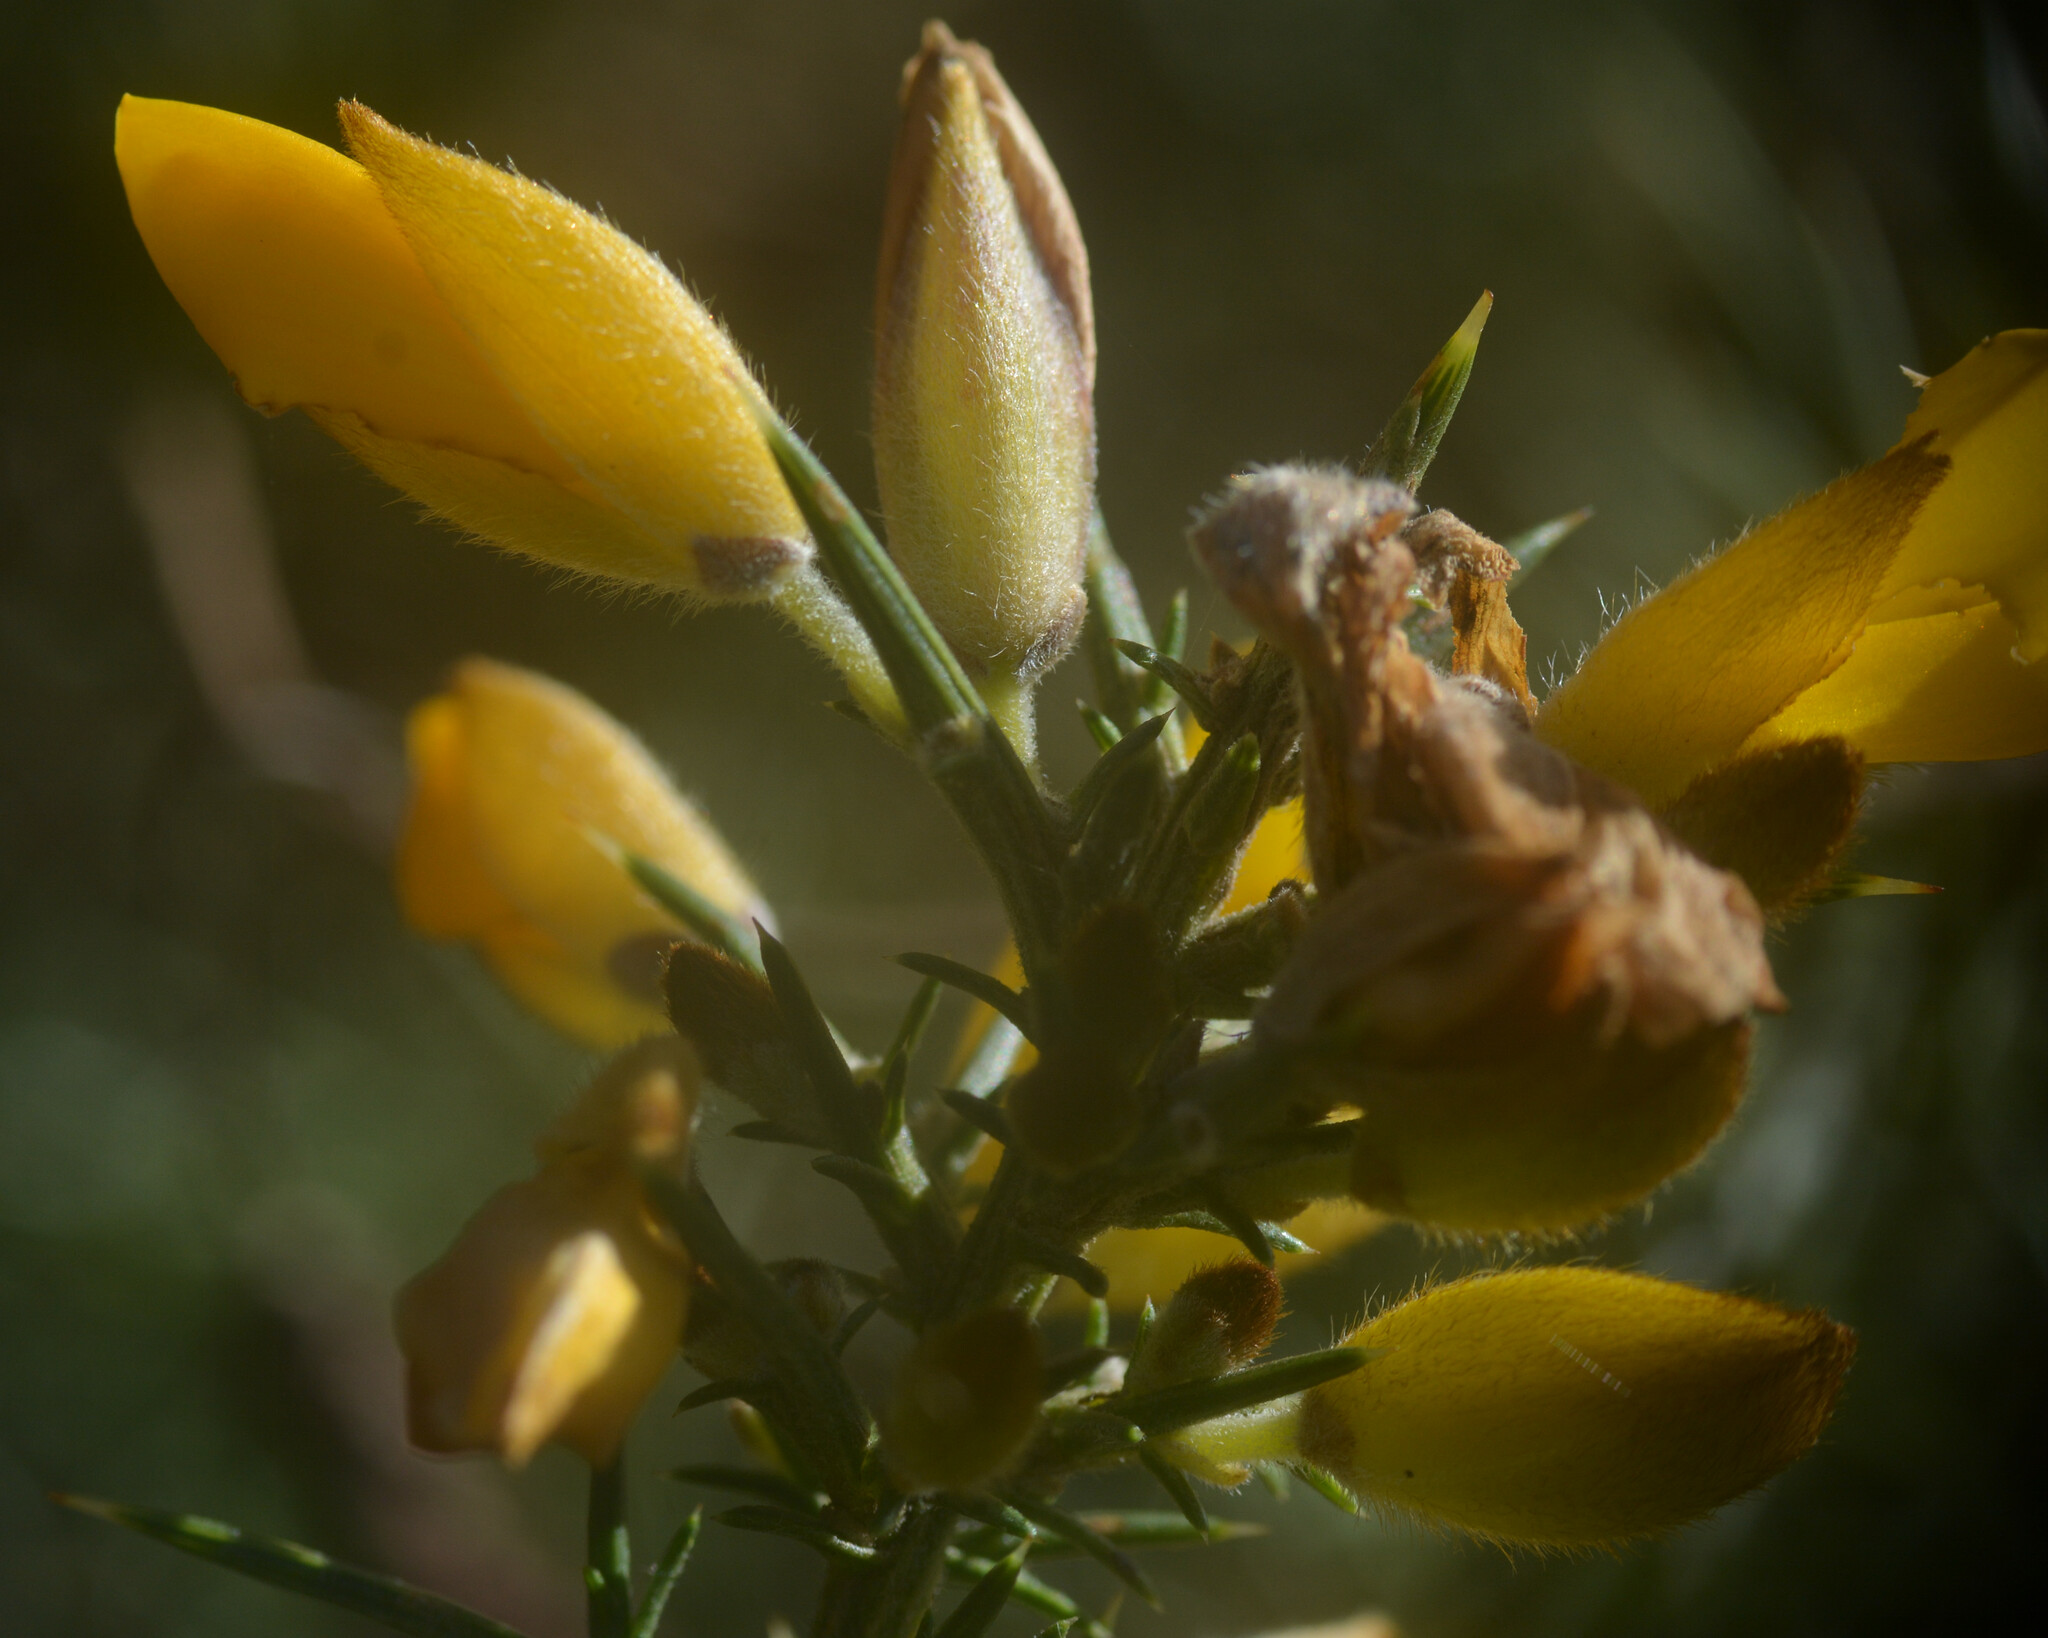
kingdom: Plantae
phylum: Tracheophyta
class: Magnoliopsida
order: Fabales
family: Fabaceae
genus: Ulex
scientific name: Ulex europaeus
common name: Common gorse
